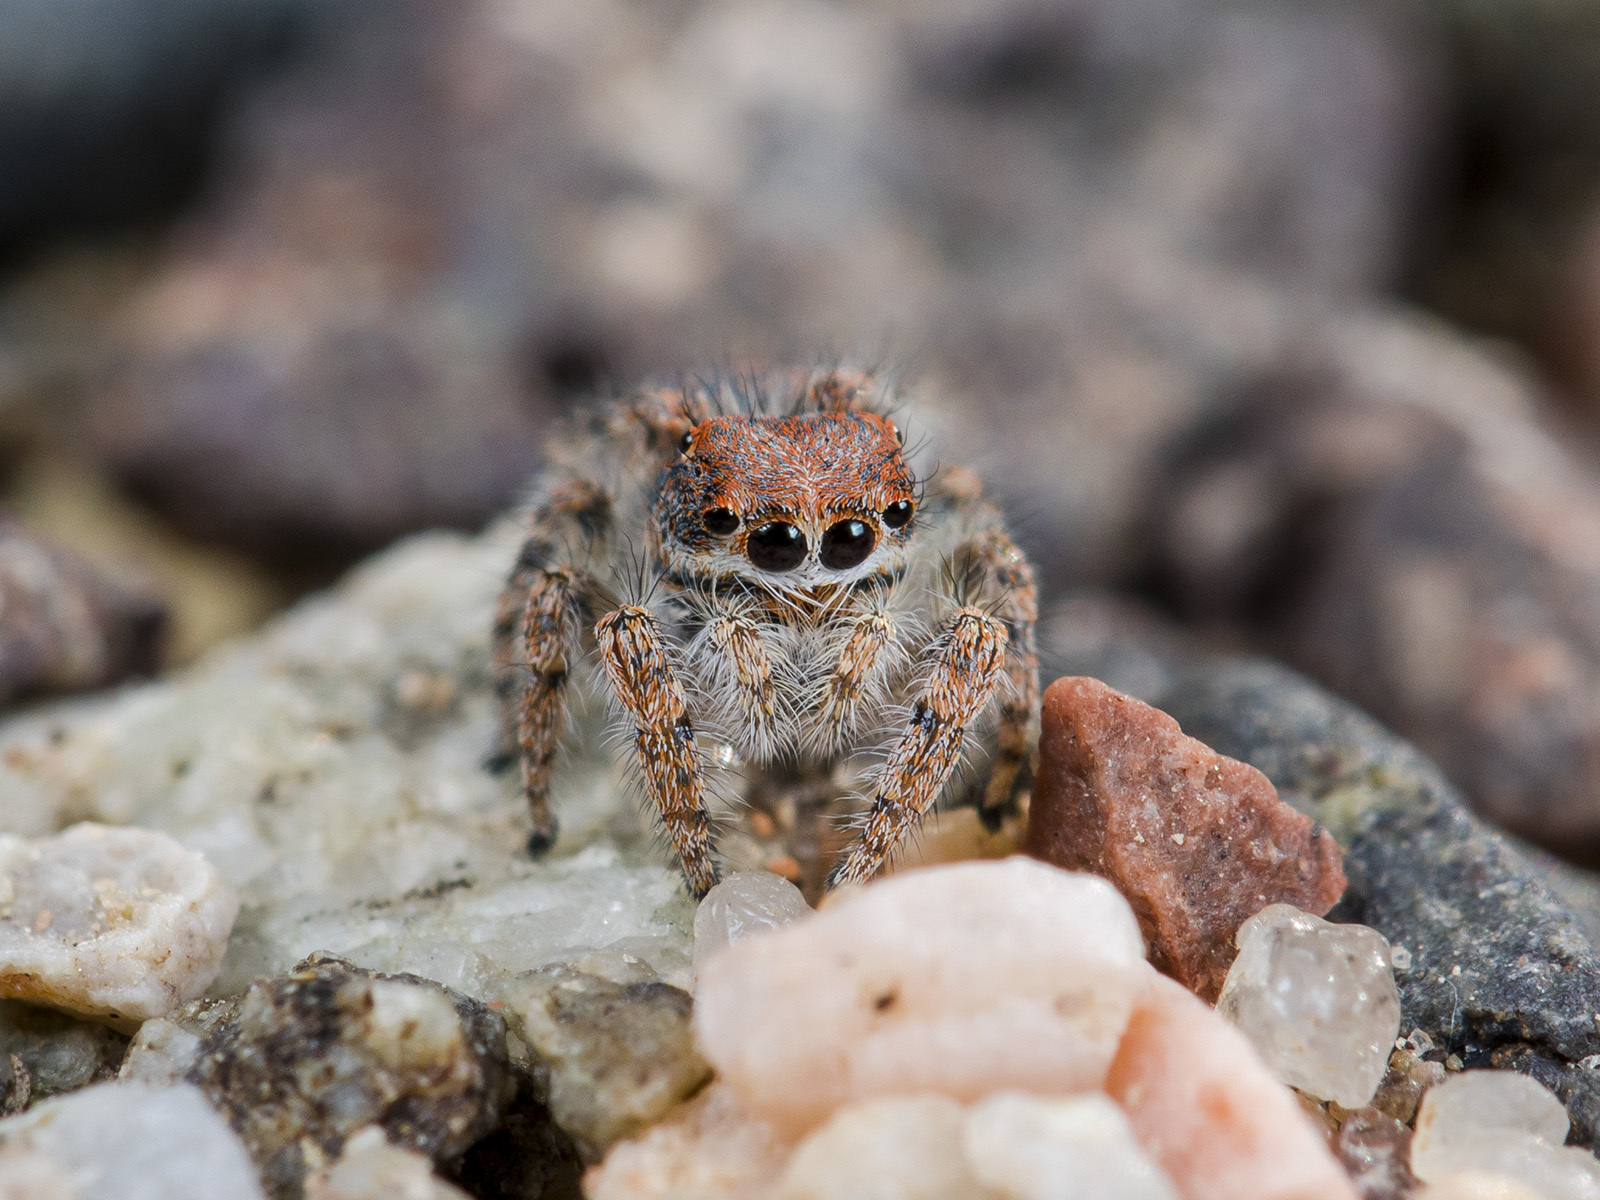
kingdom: Animalia
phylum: Arthropoda
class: Arachnida
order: Araneae
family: Salticidae
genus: Yllenus
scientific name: Yllenus zyuzini
